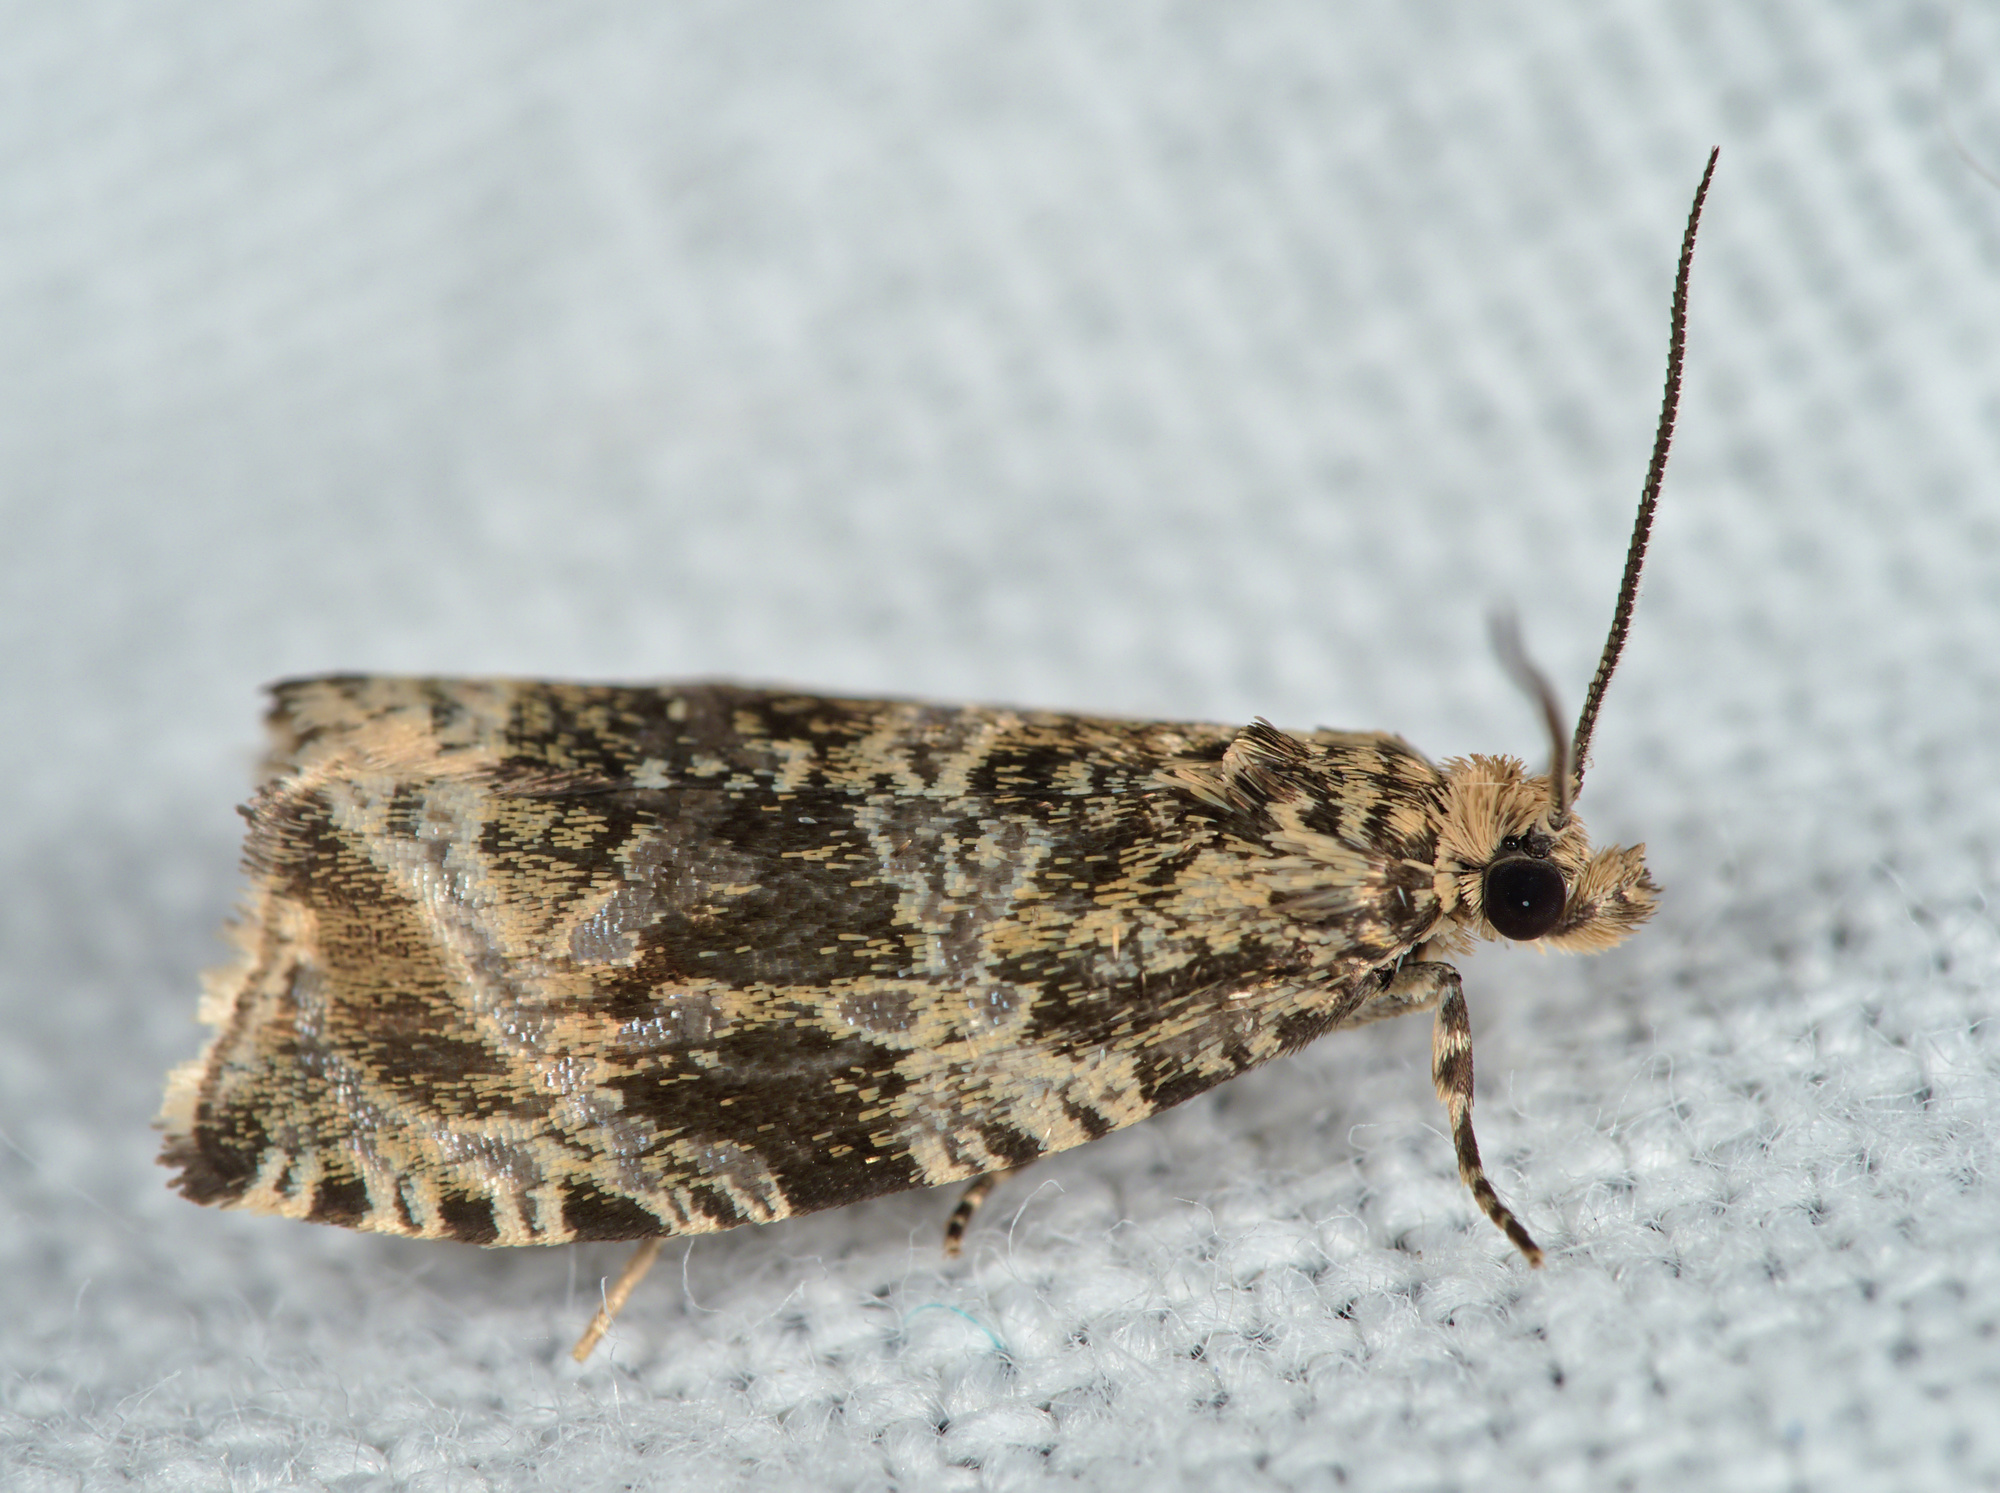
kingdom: Animalia
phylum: Arthropoda
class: Insecta
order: Lepidoptera
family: Tortricidae
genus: Syricoris
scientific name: Syricoris lacunana
